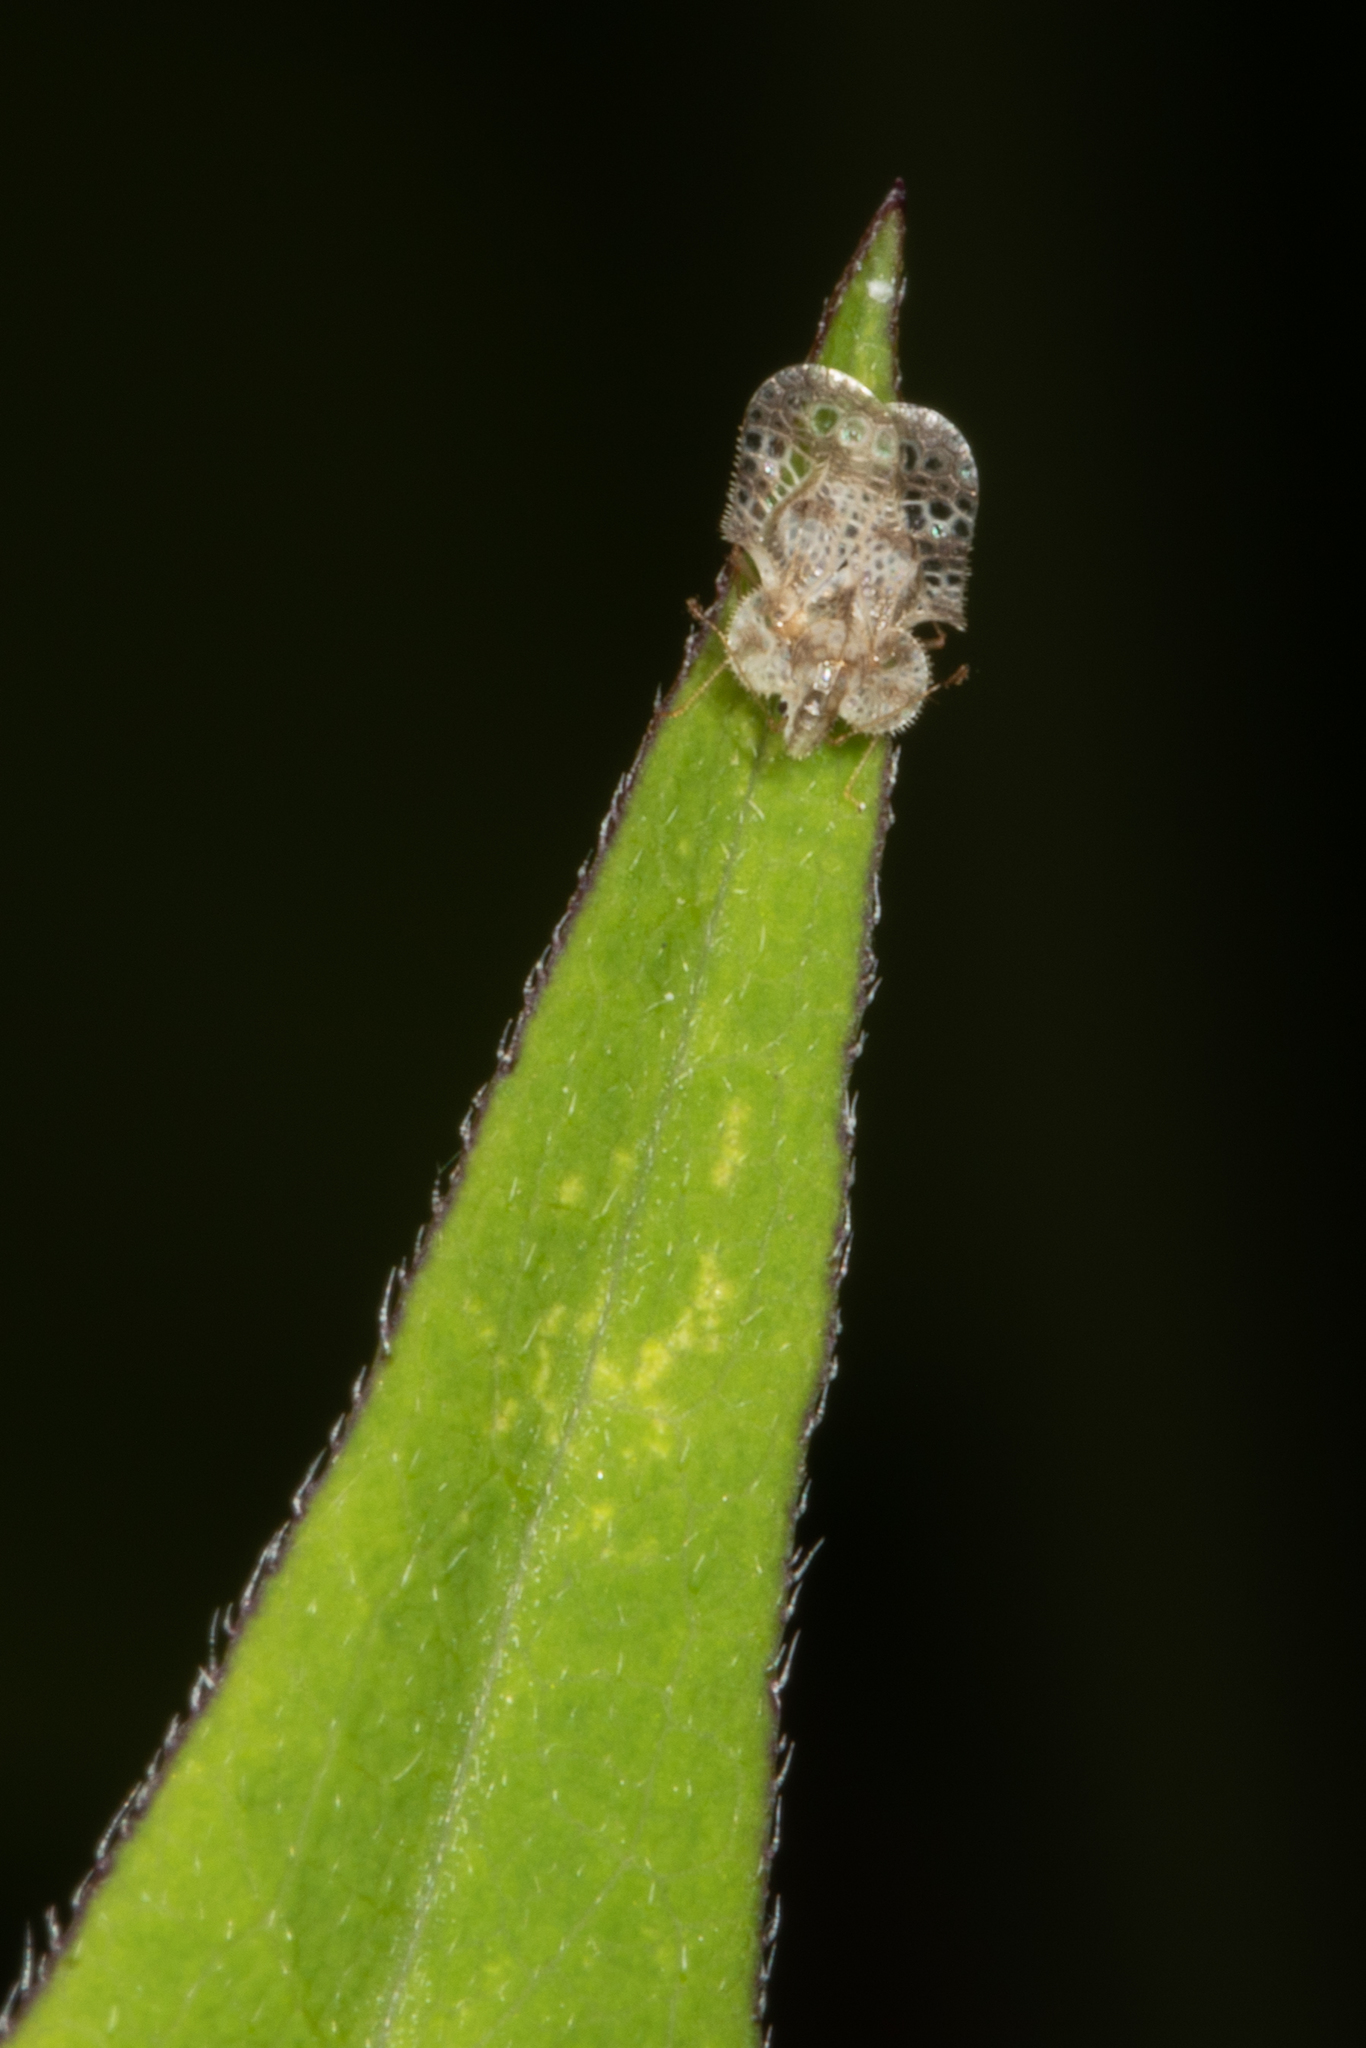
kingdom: Animalia
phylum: Arthropoda
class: Insecta
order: Hemiptera
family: Tingidae
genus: Corythucha
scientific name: Corythucha marmorata
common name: Chrysanthemum lace bug
